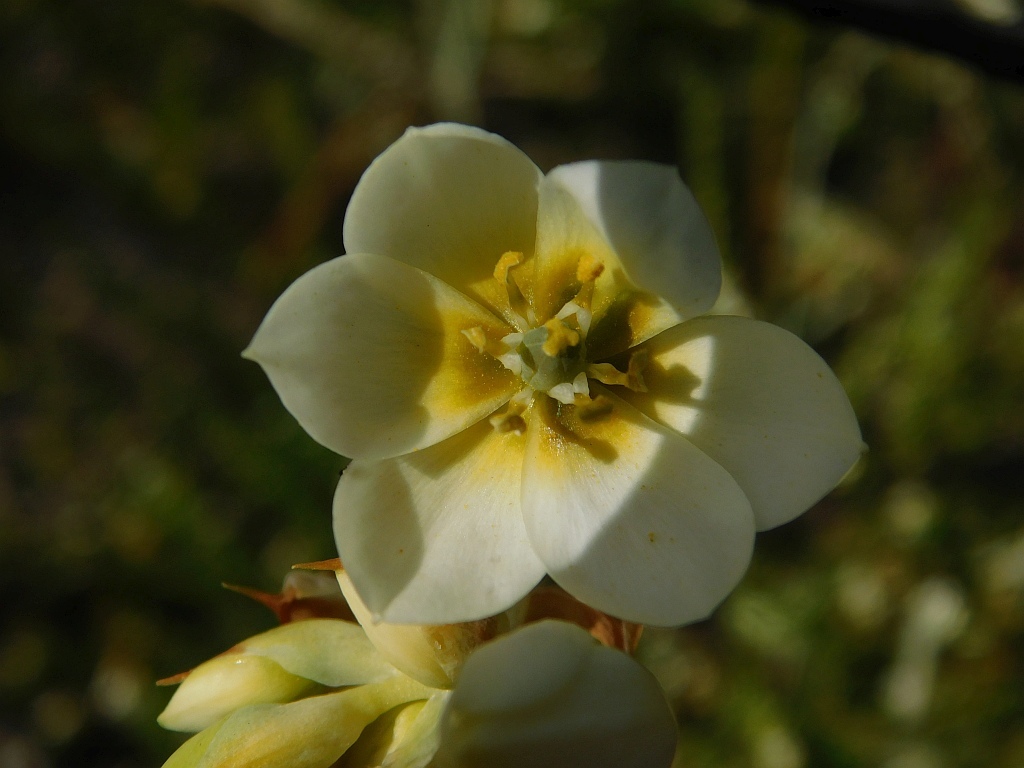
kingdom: Plantae
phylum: Tracheophyta
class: Liliopsida
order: Asparagales
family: Asparagaceae
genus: Ornithogalum
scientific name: Ornithogalum dubium
